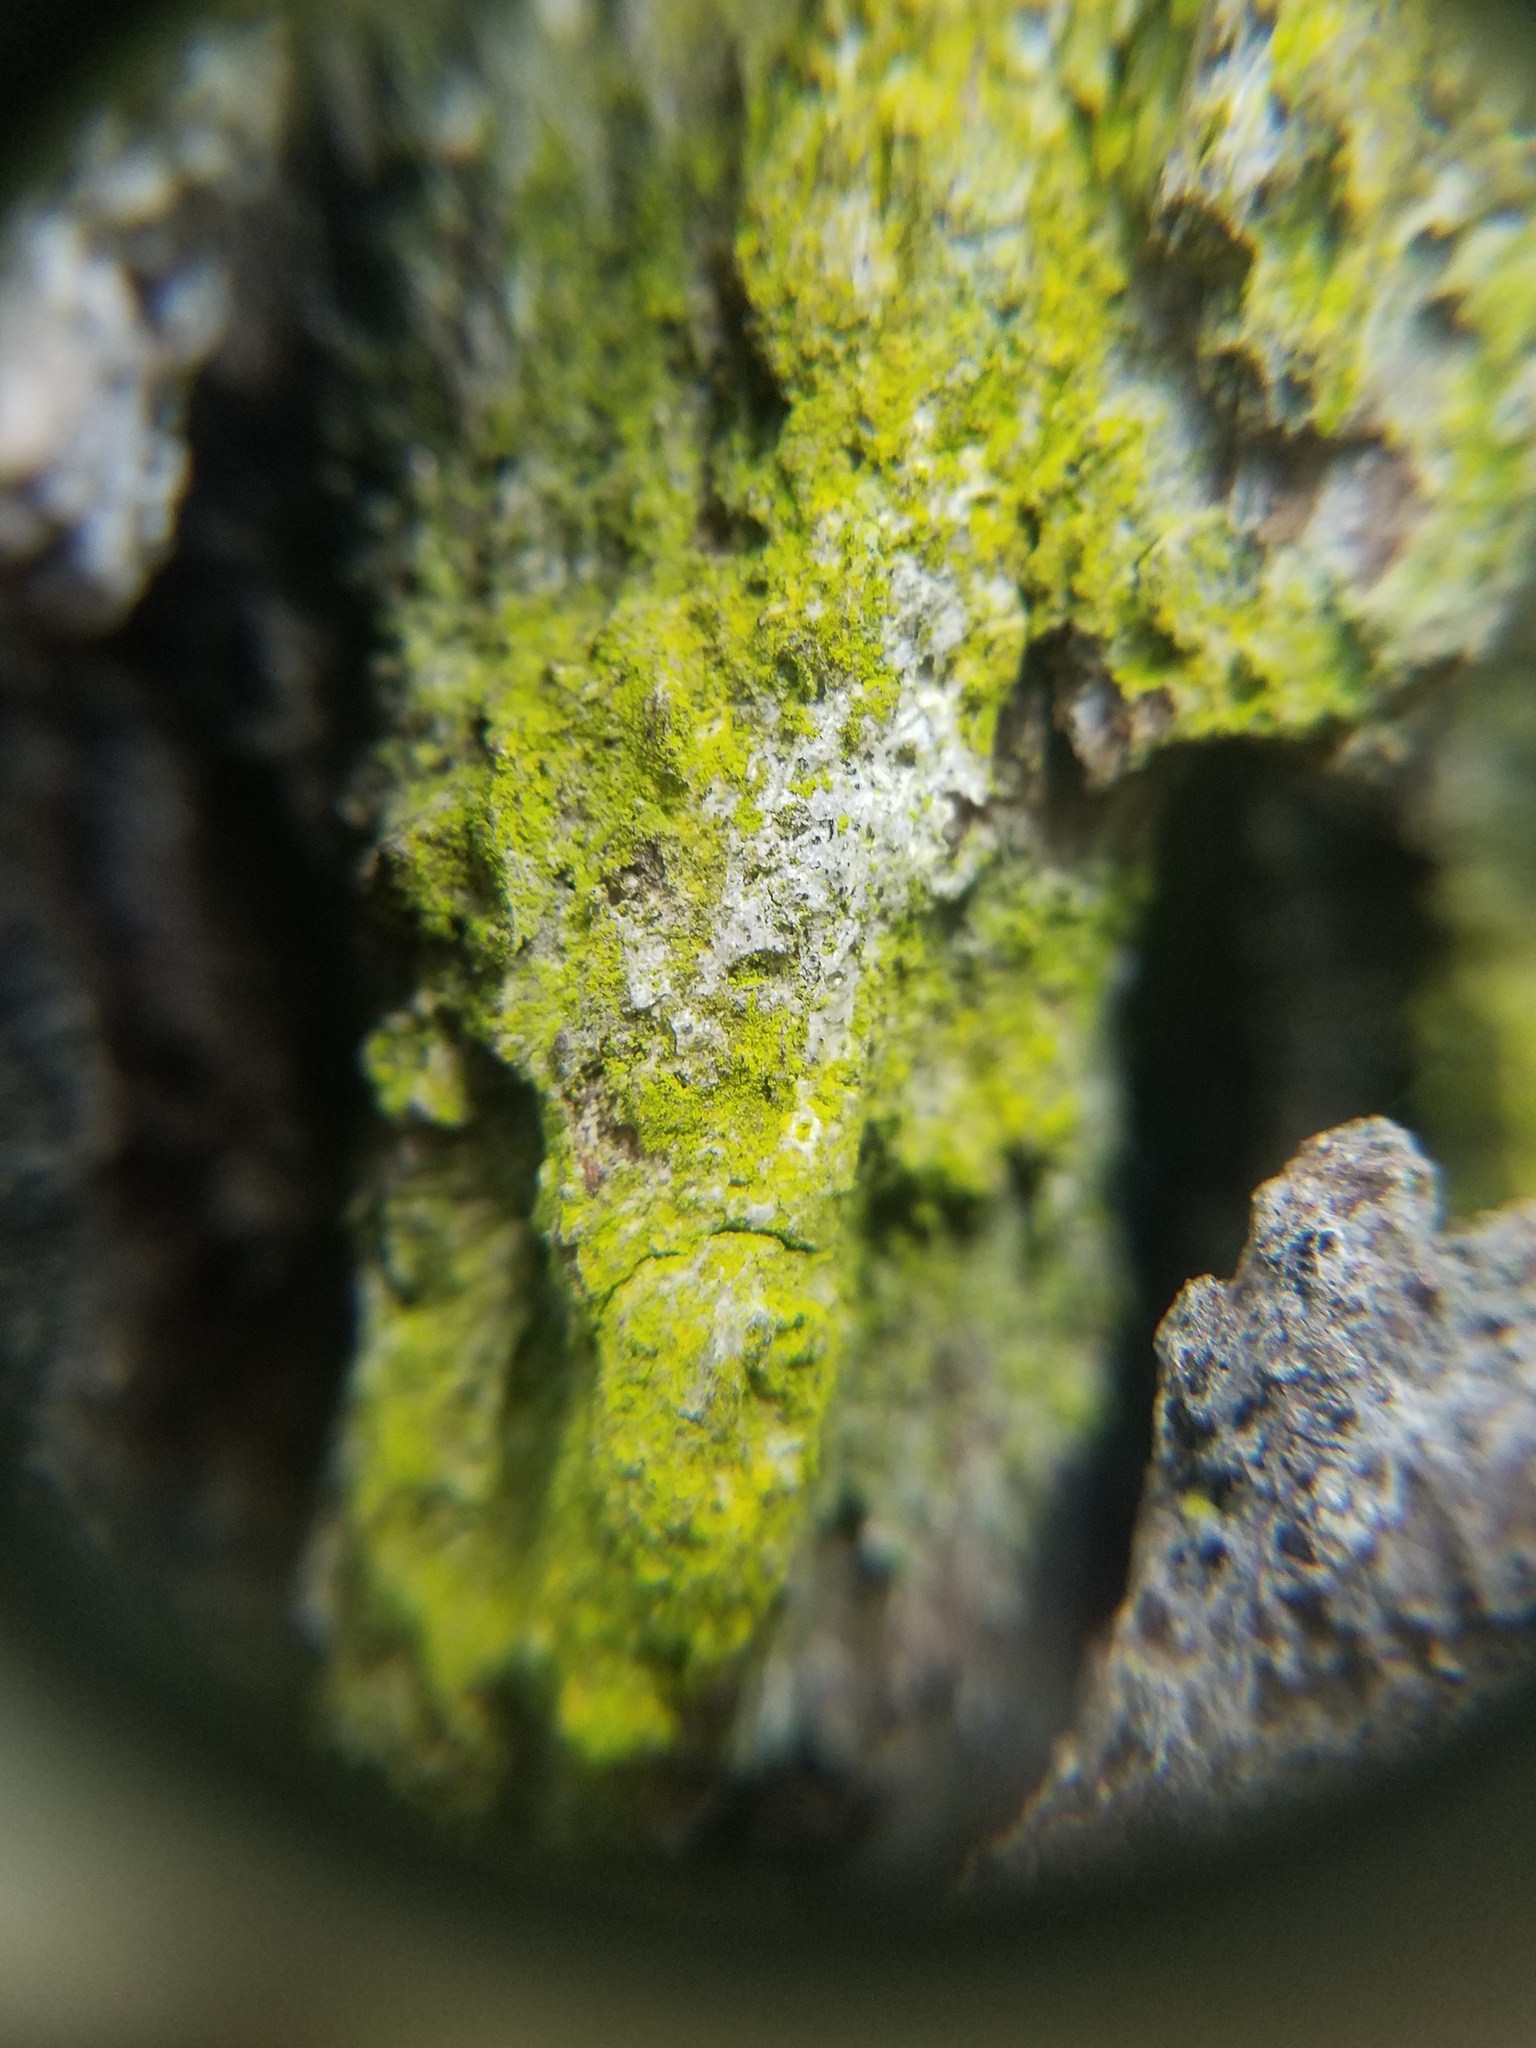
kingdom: Fungi
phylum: Ascomycota
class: Arthoniomycetes
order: Arthoniales
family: Chrysotrichaceae
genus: Chrysothrix
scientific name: Chrysothrix xanthina
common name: Common gold-dust
